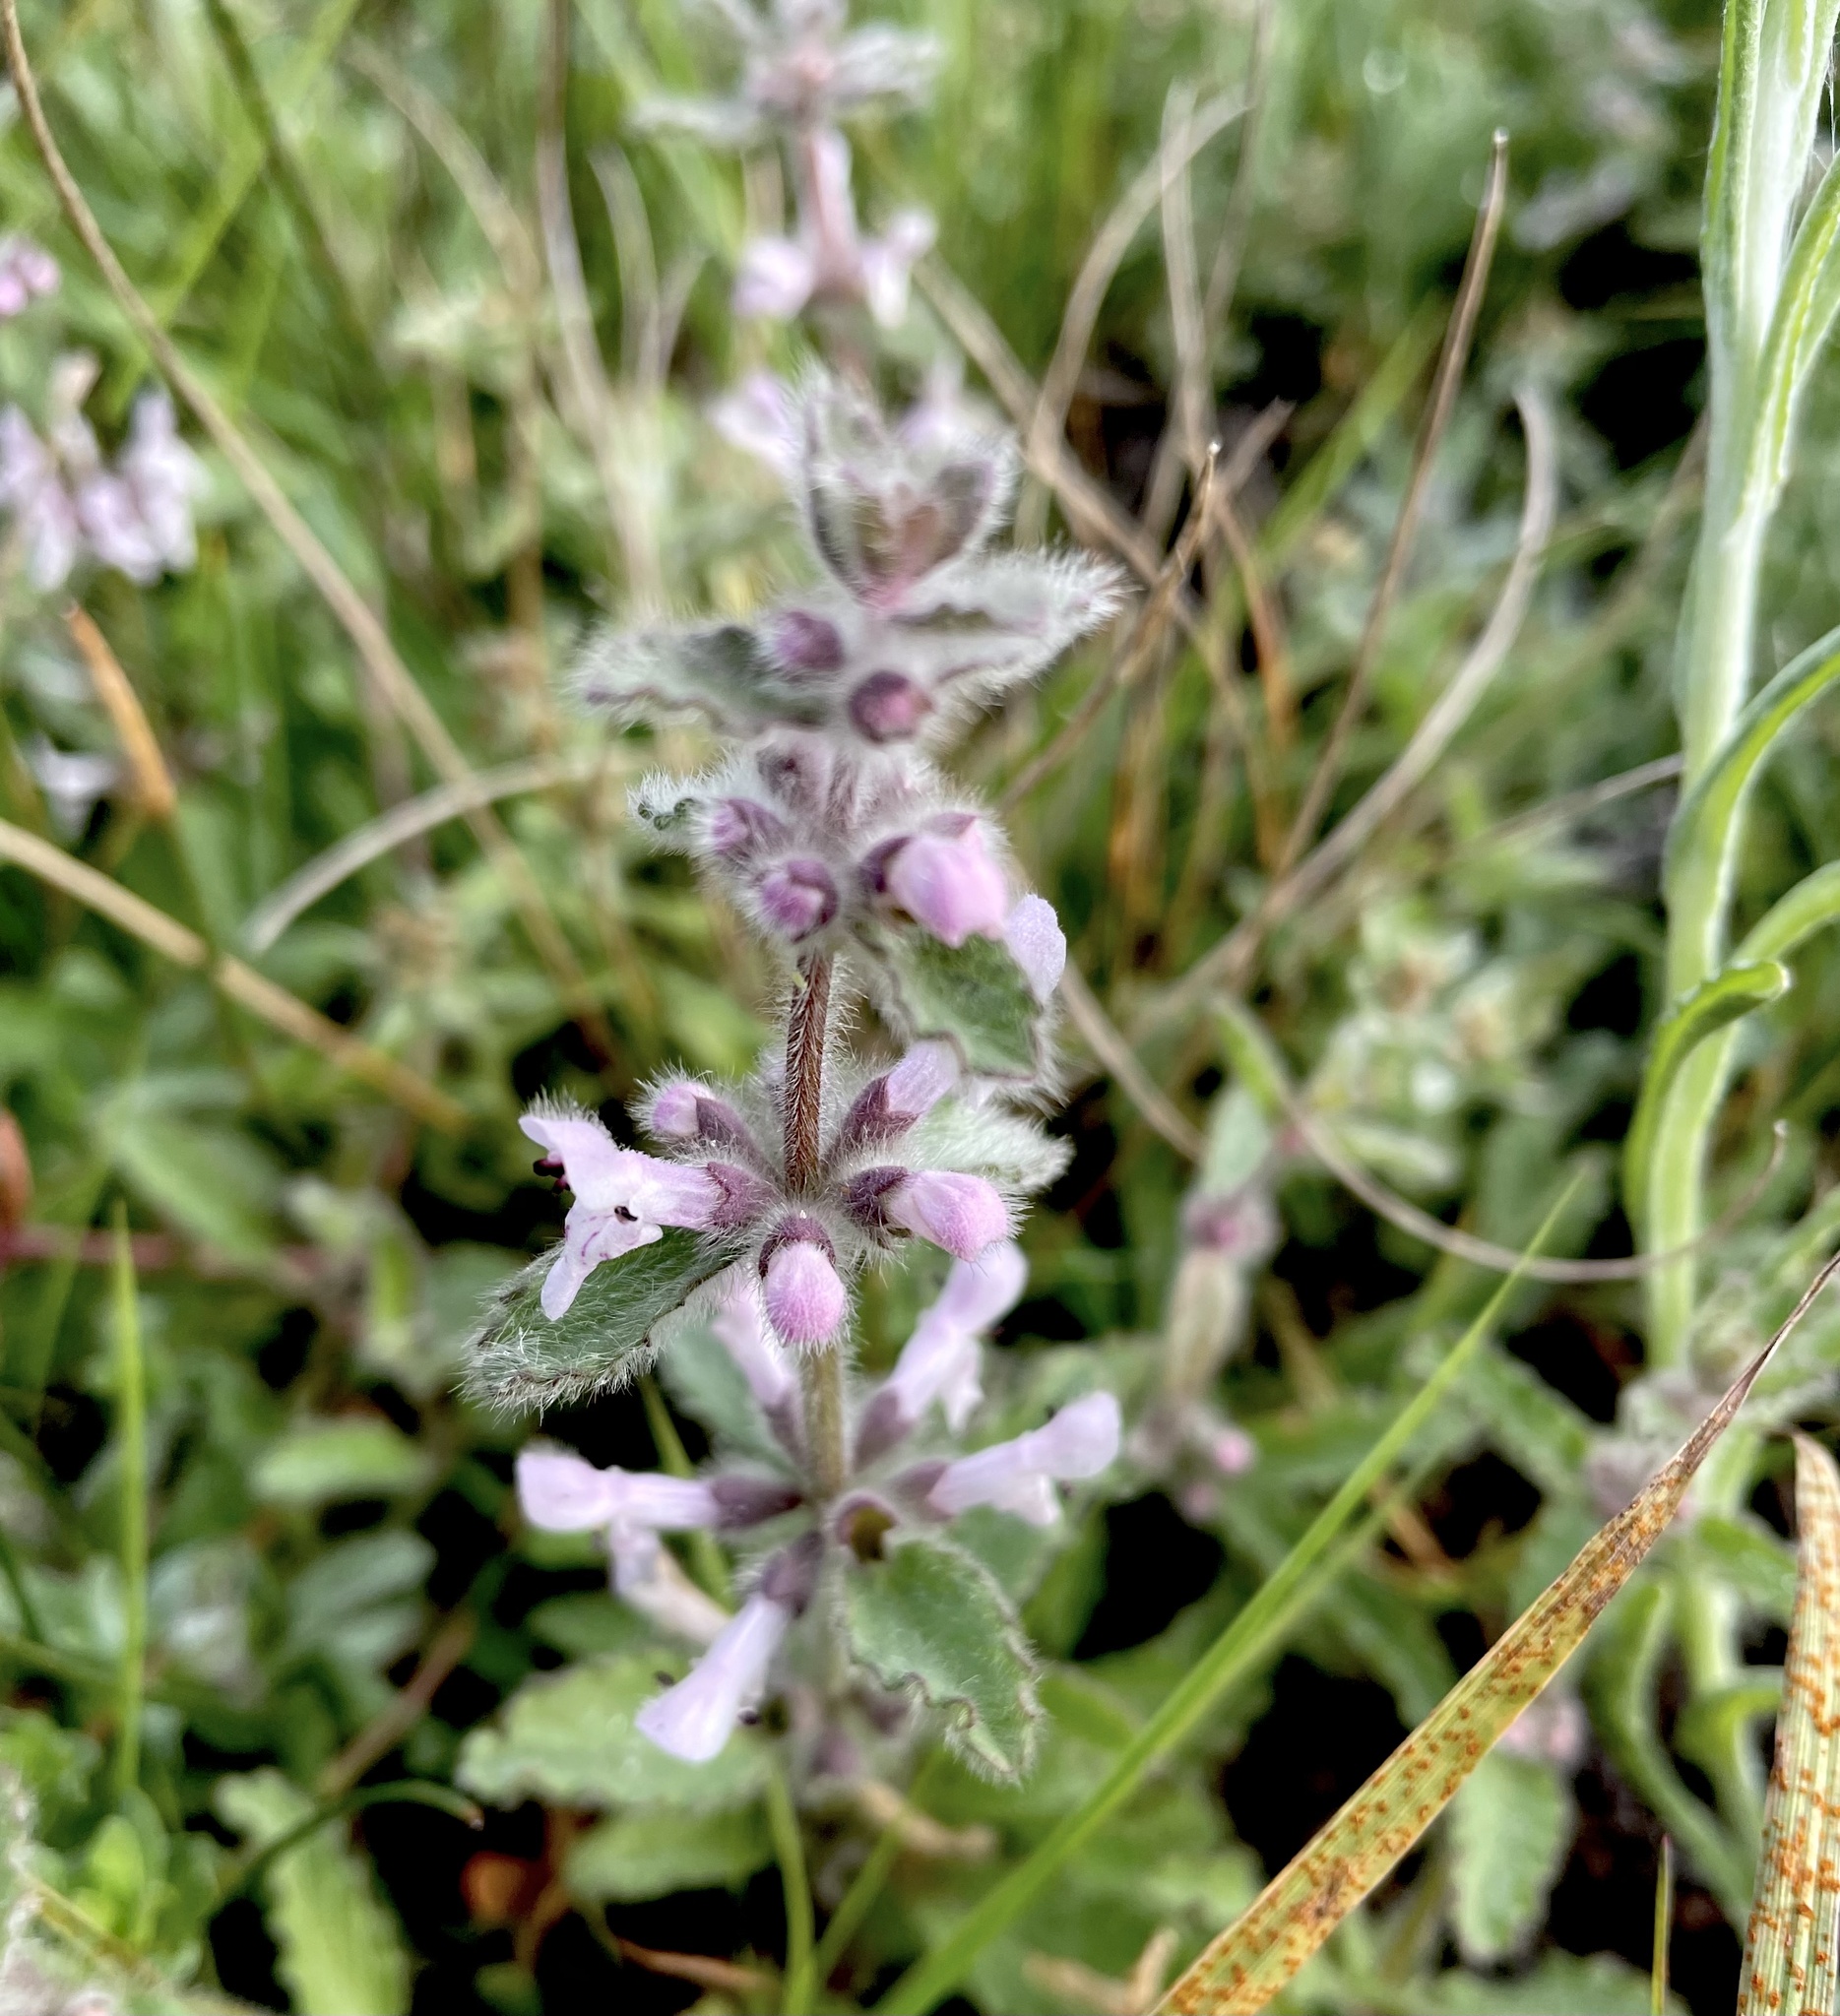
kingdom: Plantae
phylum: Tracheophyta
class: Magnoliopsida
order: Lamiales
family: Lamiaceae
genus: Stachys
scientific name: Stachys ajugoides
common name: Hedge-nettle
